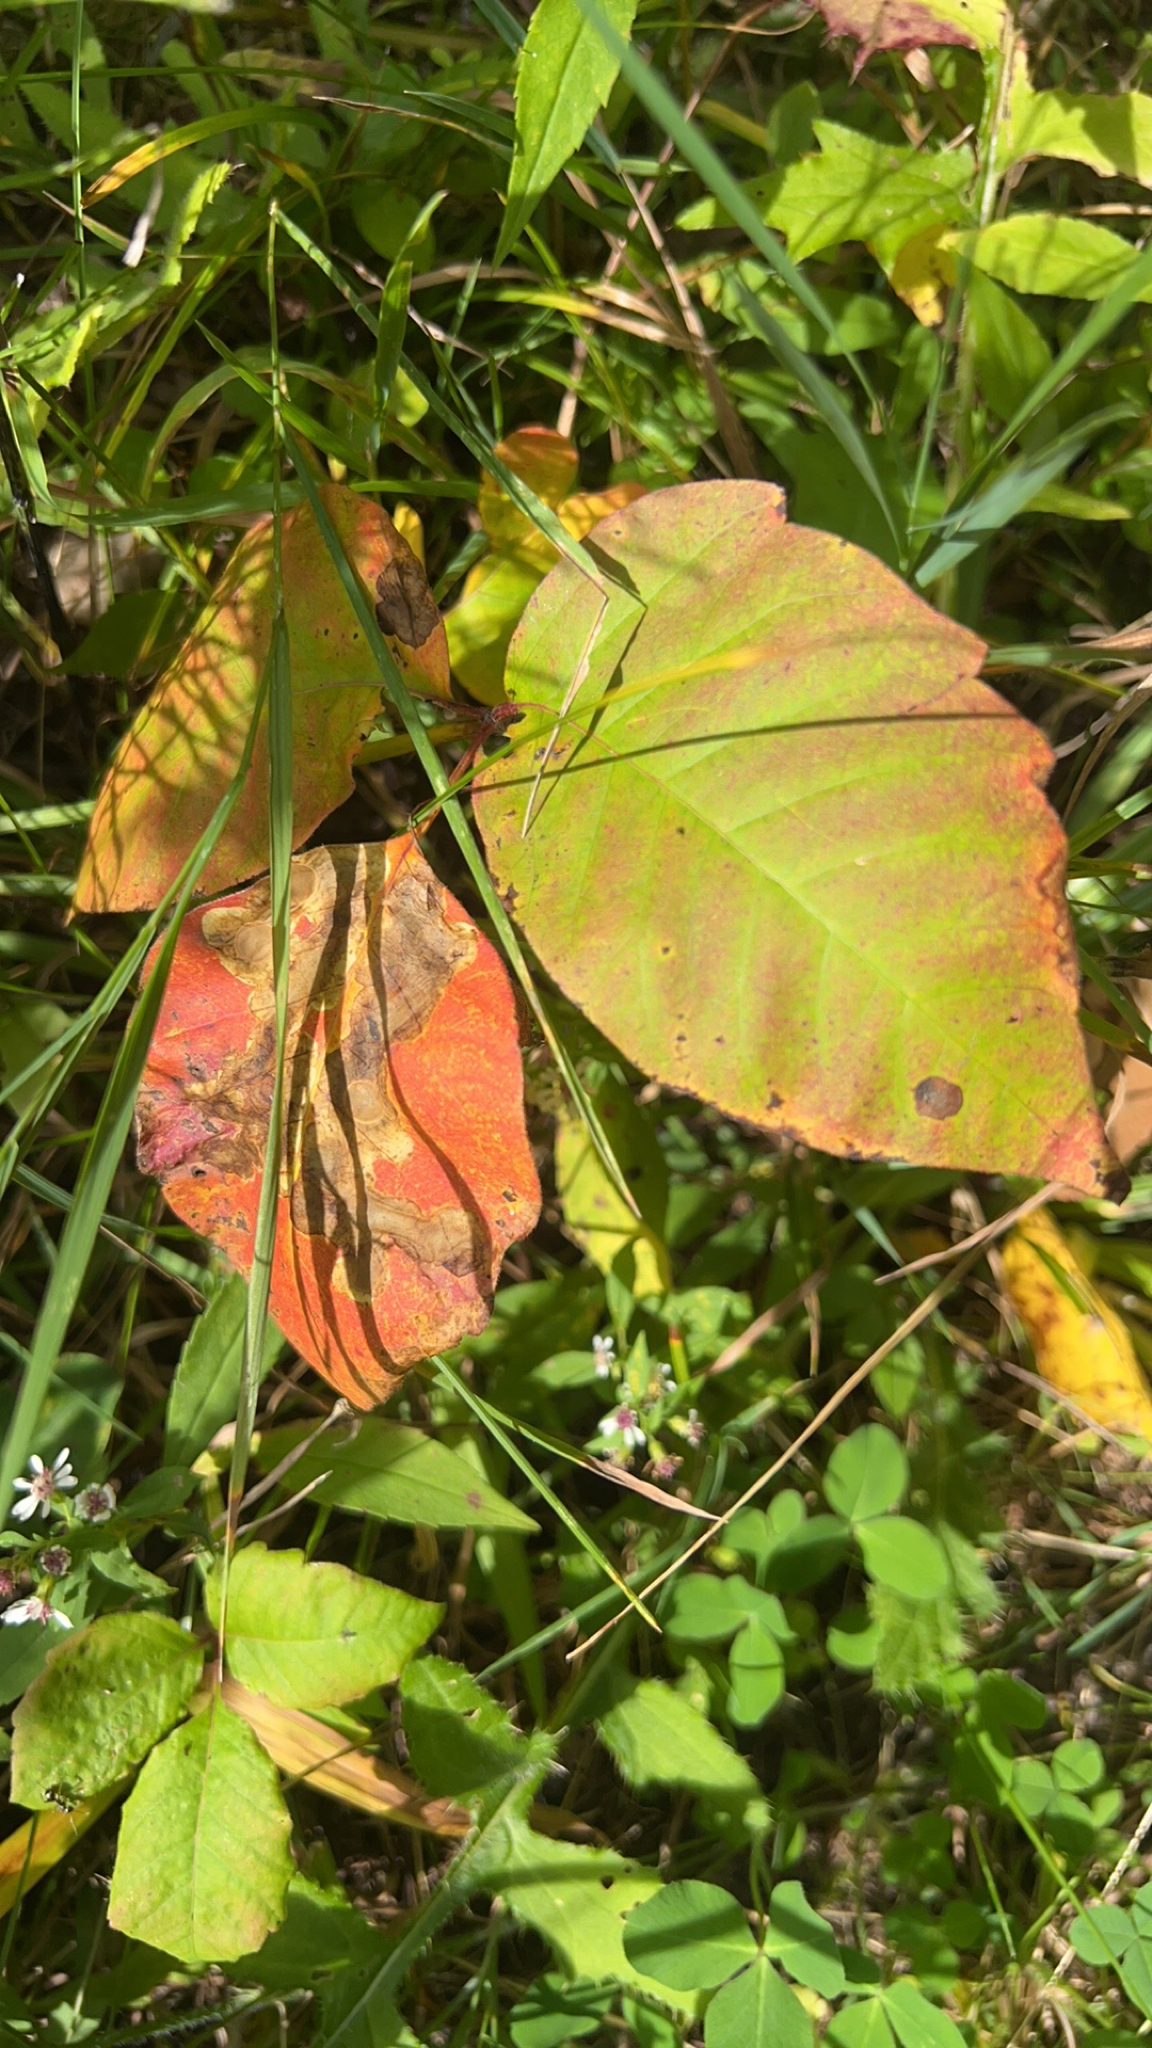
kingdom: Plantae
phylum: Tracheophyta
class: Magnoliopsida
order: Sapindales
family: Anacardiaceae
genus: Toxicodendron
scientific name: Toxicodendron rydbergii
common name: Rydberg's poison-ivy
